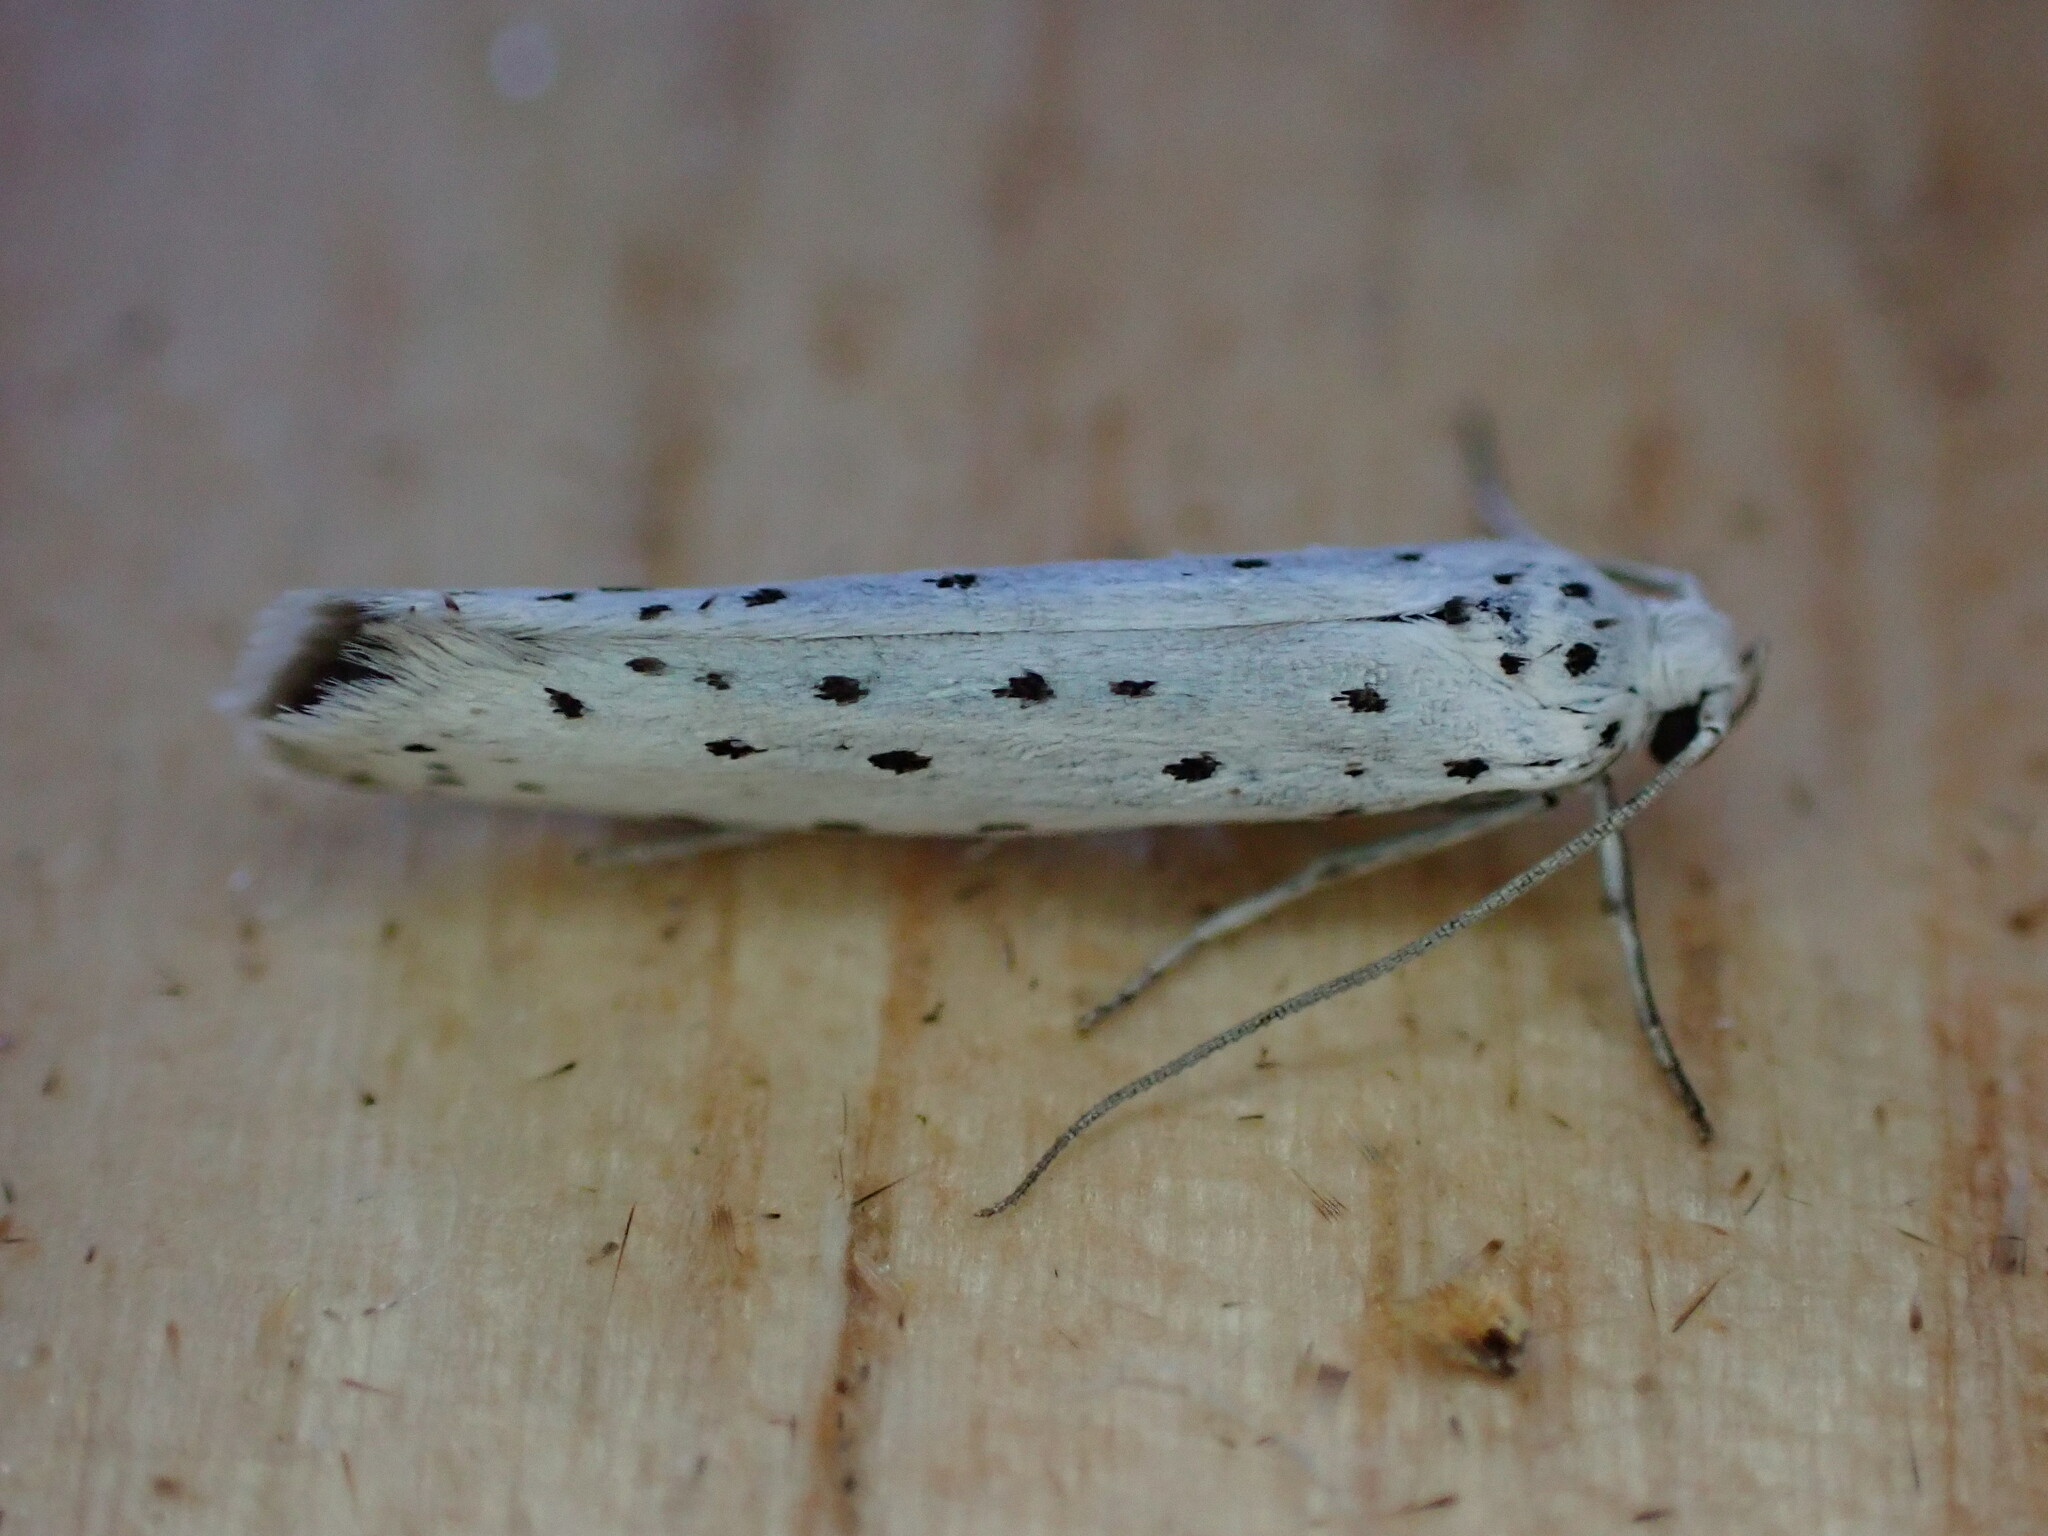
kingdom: Animalia
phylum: Arthropoda
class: Insecta
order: Lepidoptera
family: Yponomeutidae
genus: Yponomeuta
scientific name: Yponomeuta
